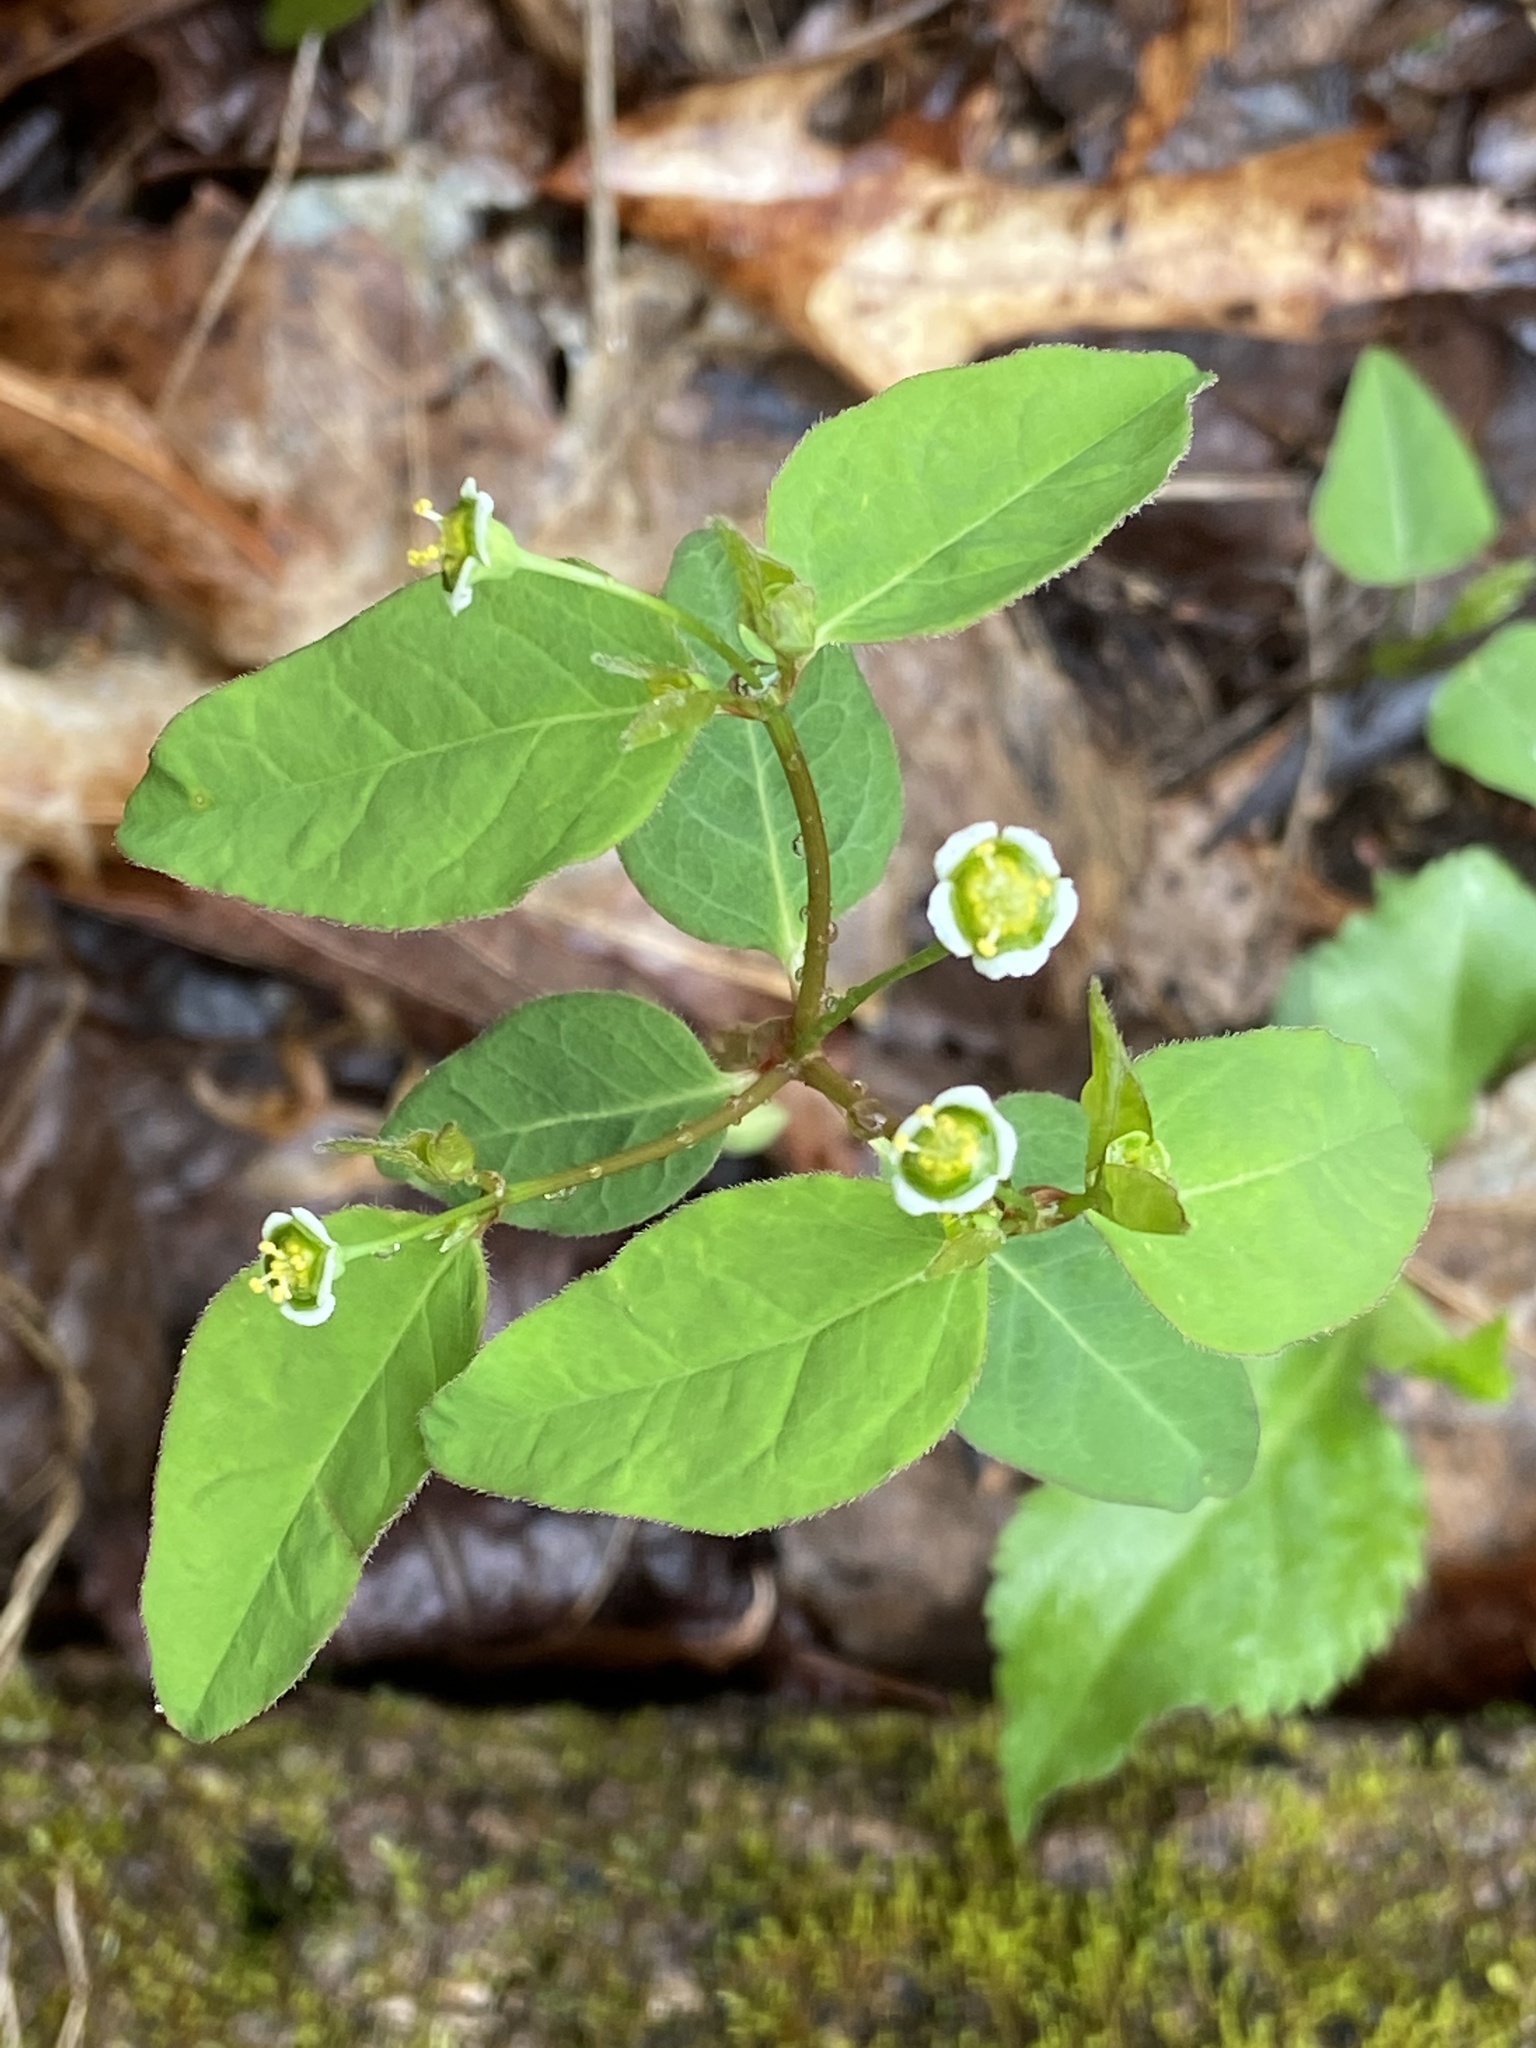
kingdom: Plantae
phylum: Tracheophyta
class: Magnoliopsida
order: Malpighiales
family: Euphorbiaceae
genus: Euphorbia
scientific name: Euphorbia mercurialina
